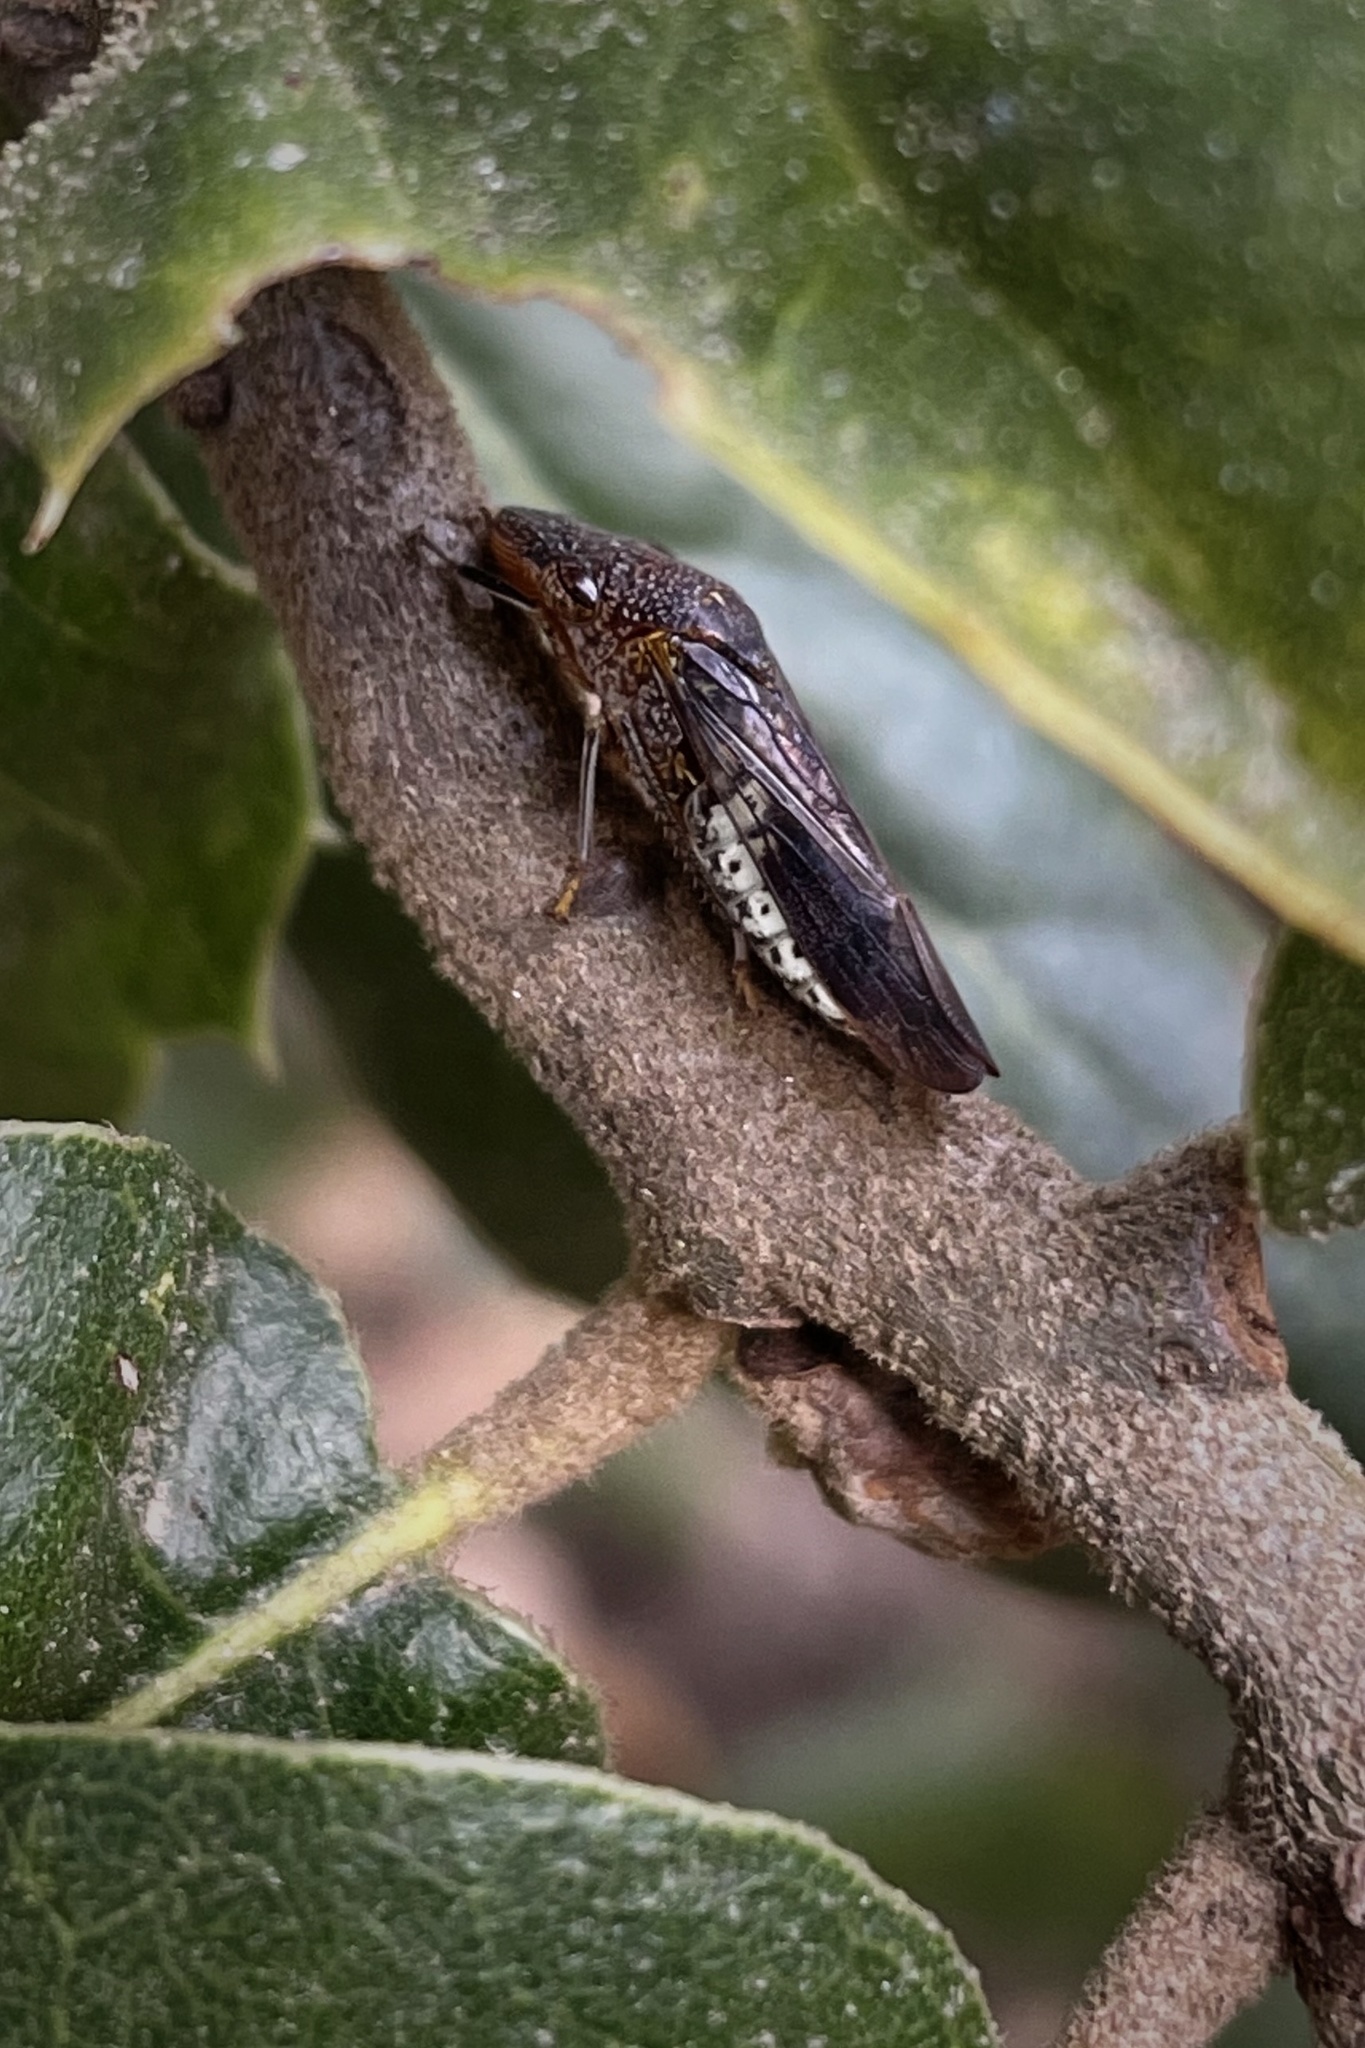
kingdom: Animalia
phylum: Arthropoda
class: Insecta
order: Hemiptera
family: Cicadellidae
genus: Homalodisca
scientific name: Homalodisca vitripennis
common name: Glassy-winged sharpshooter
